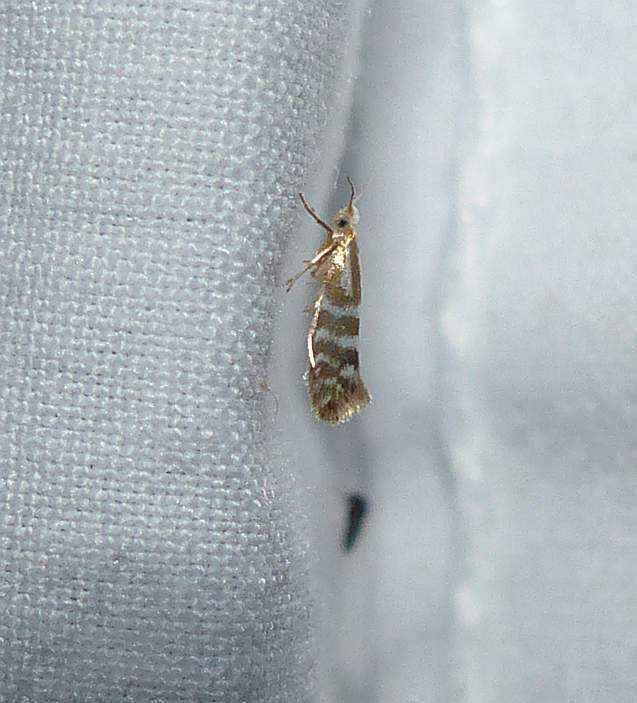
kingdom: Animalia
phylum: Arthropoda
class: Insecta
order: Lepidoptera
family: Argyresthiidae
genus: Argyresthia
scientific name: Argyresthia aureoargentella
